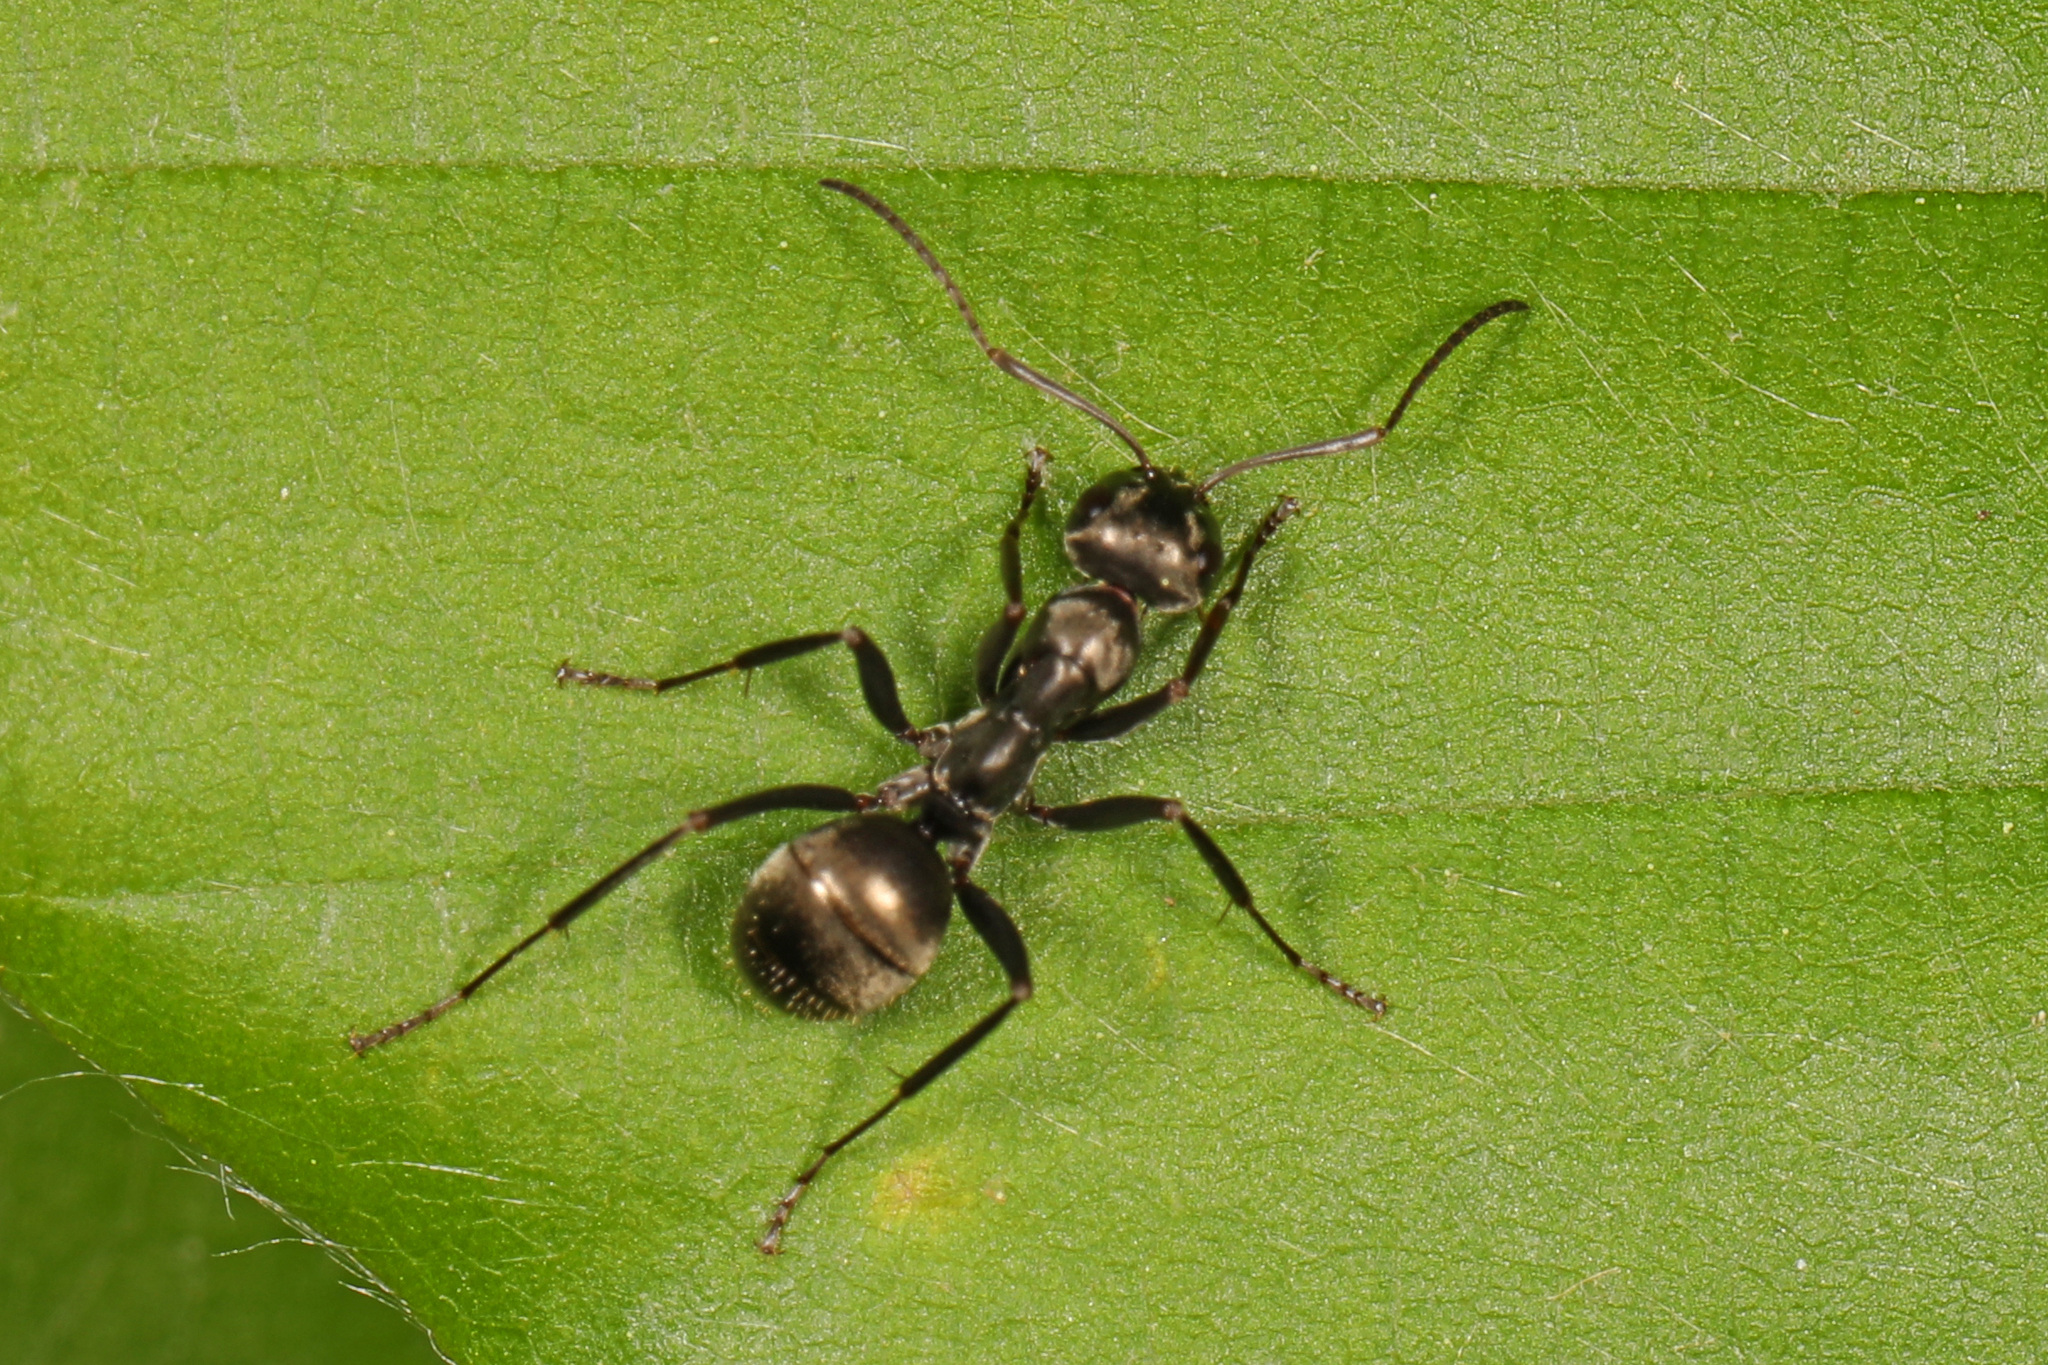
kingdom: Animalia
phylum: Arthropoda
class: Insecta
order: Hymenoptera
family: Formicidae
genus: Formica
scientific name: Formica subsericea
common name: Silky field ant
